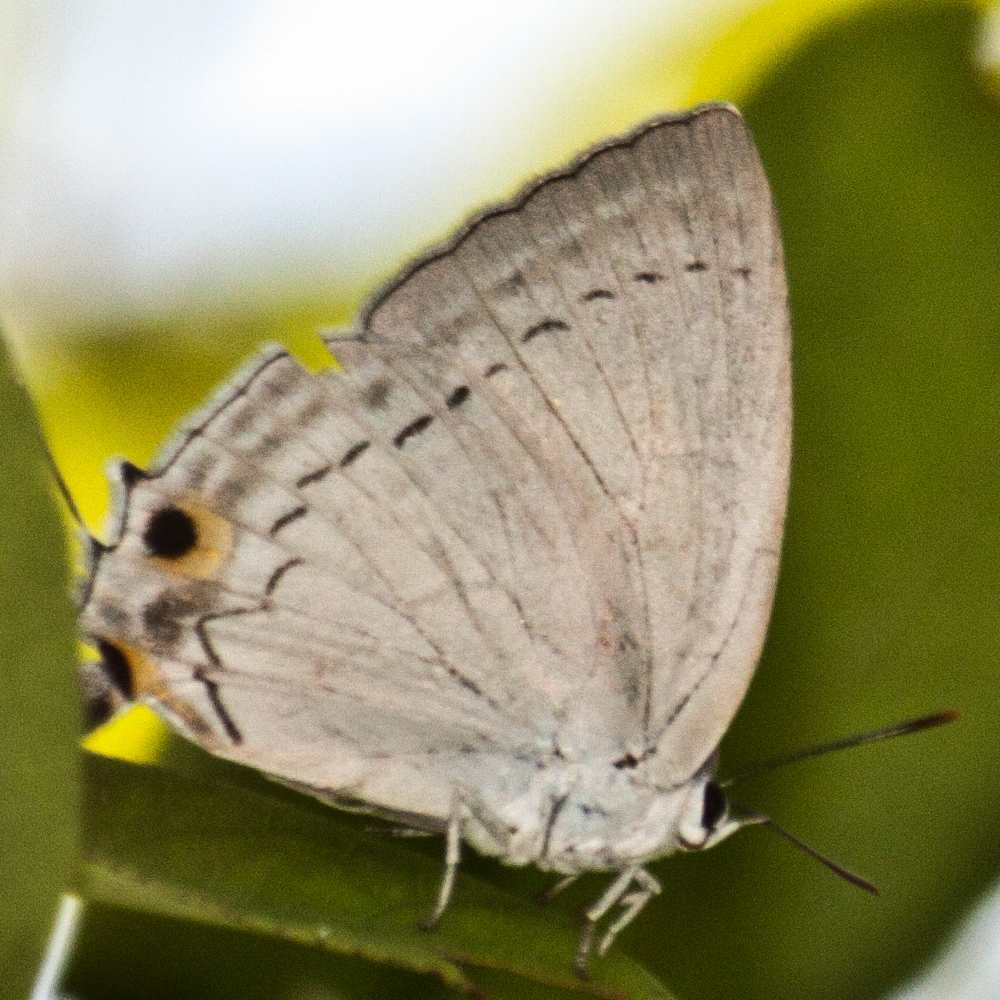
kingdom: Animalia
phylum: Arthropoda
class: Insecta
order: Lepidoptera
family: Lycaenidae
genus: Tajuria
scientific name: Tajuria cippus
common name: Peacock royal
